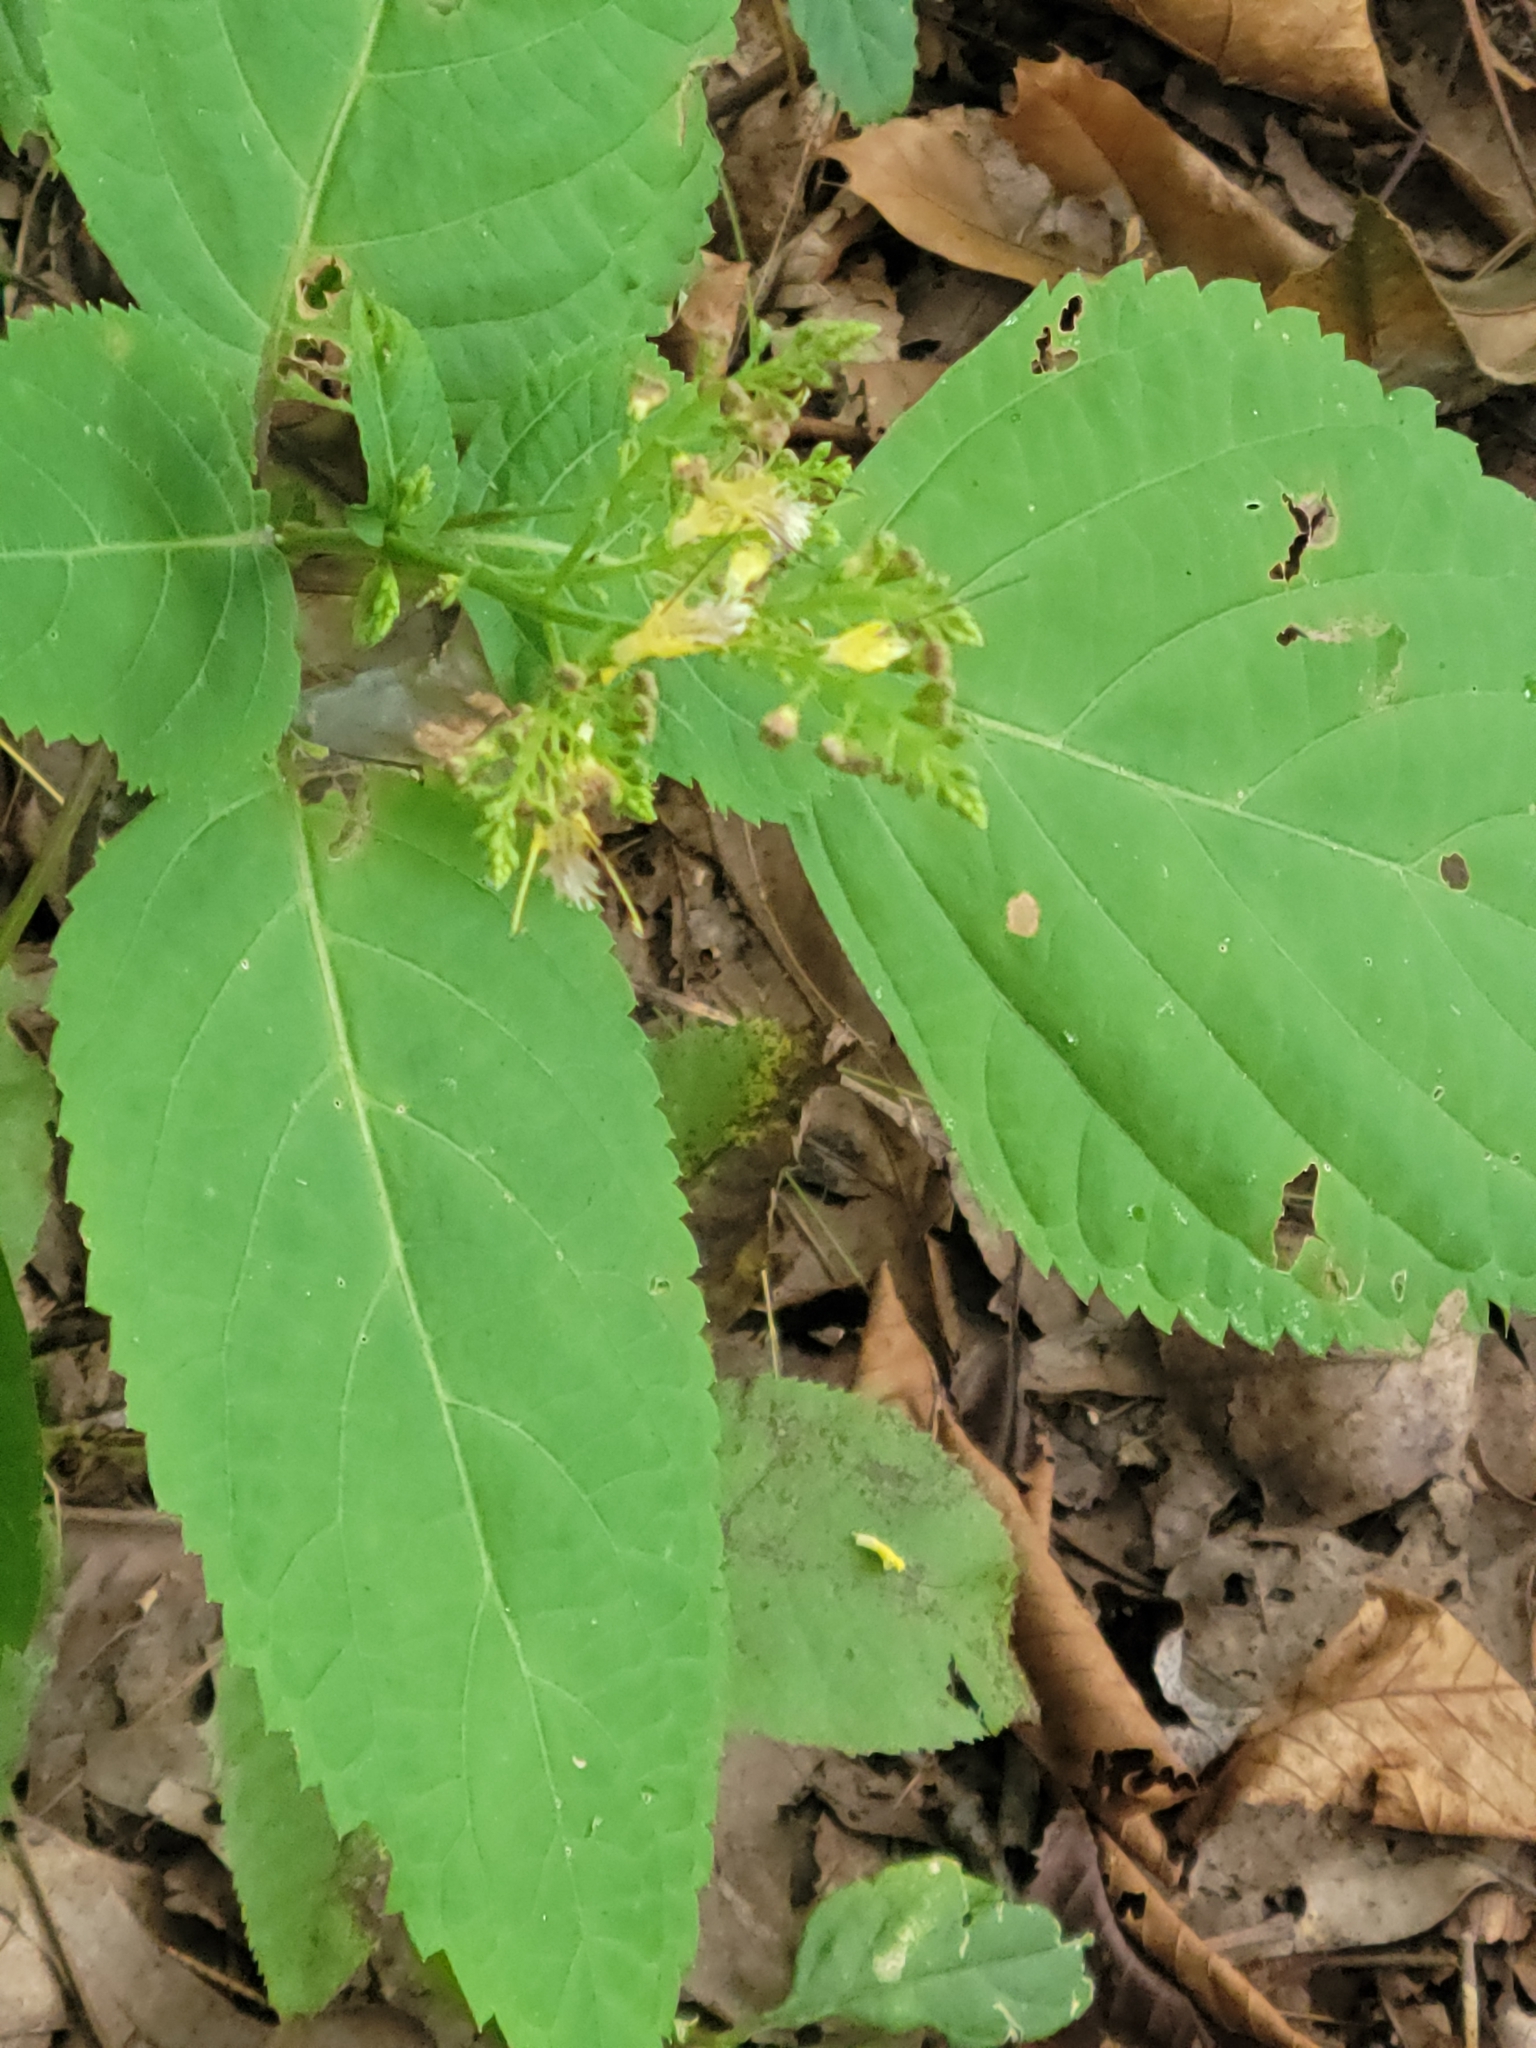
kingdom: Plantae
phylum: Tracheophyta
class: Magnoliopsida
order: Lamiales
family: Lamiaceae
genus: Collinsonia
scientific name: Collinsonia canadensis
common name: Northern horsebalm
